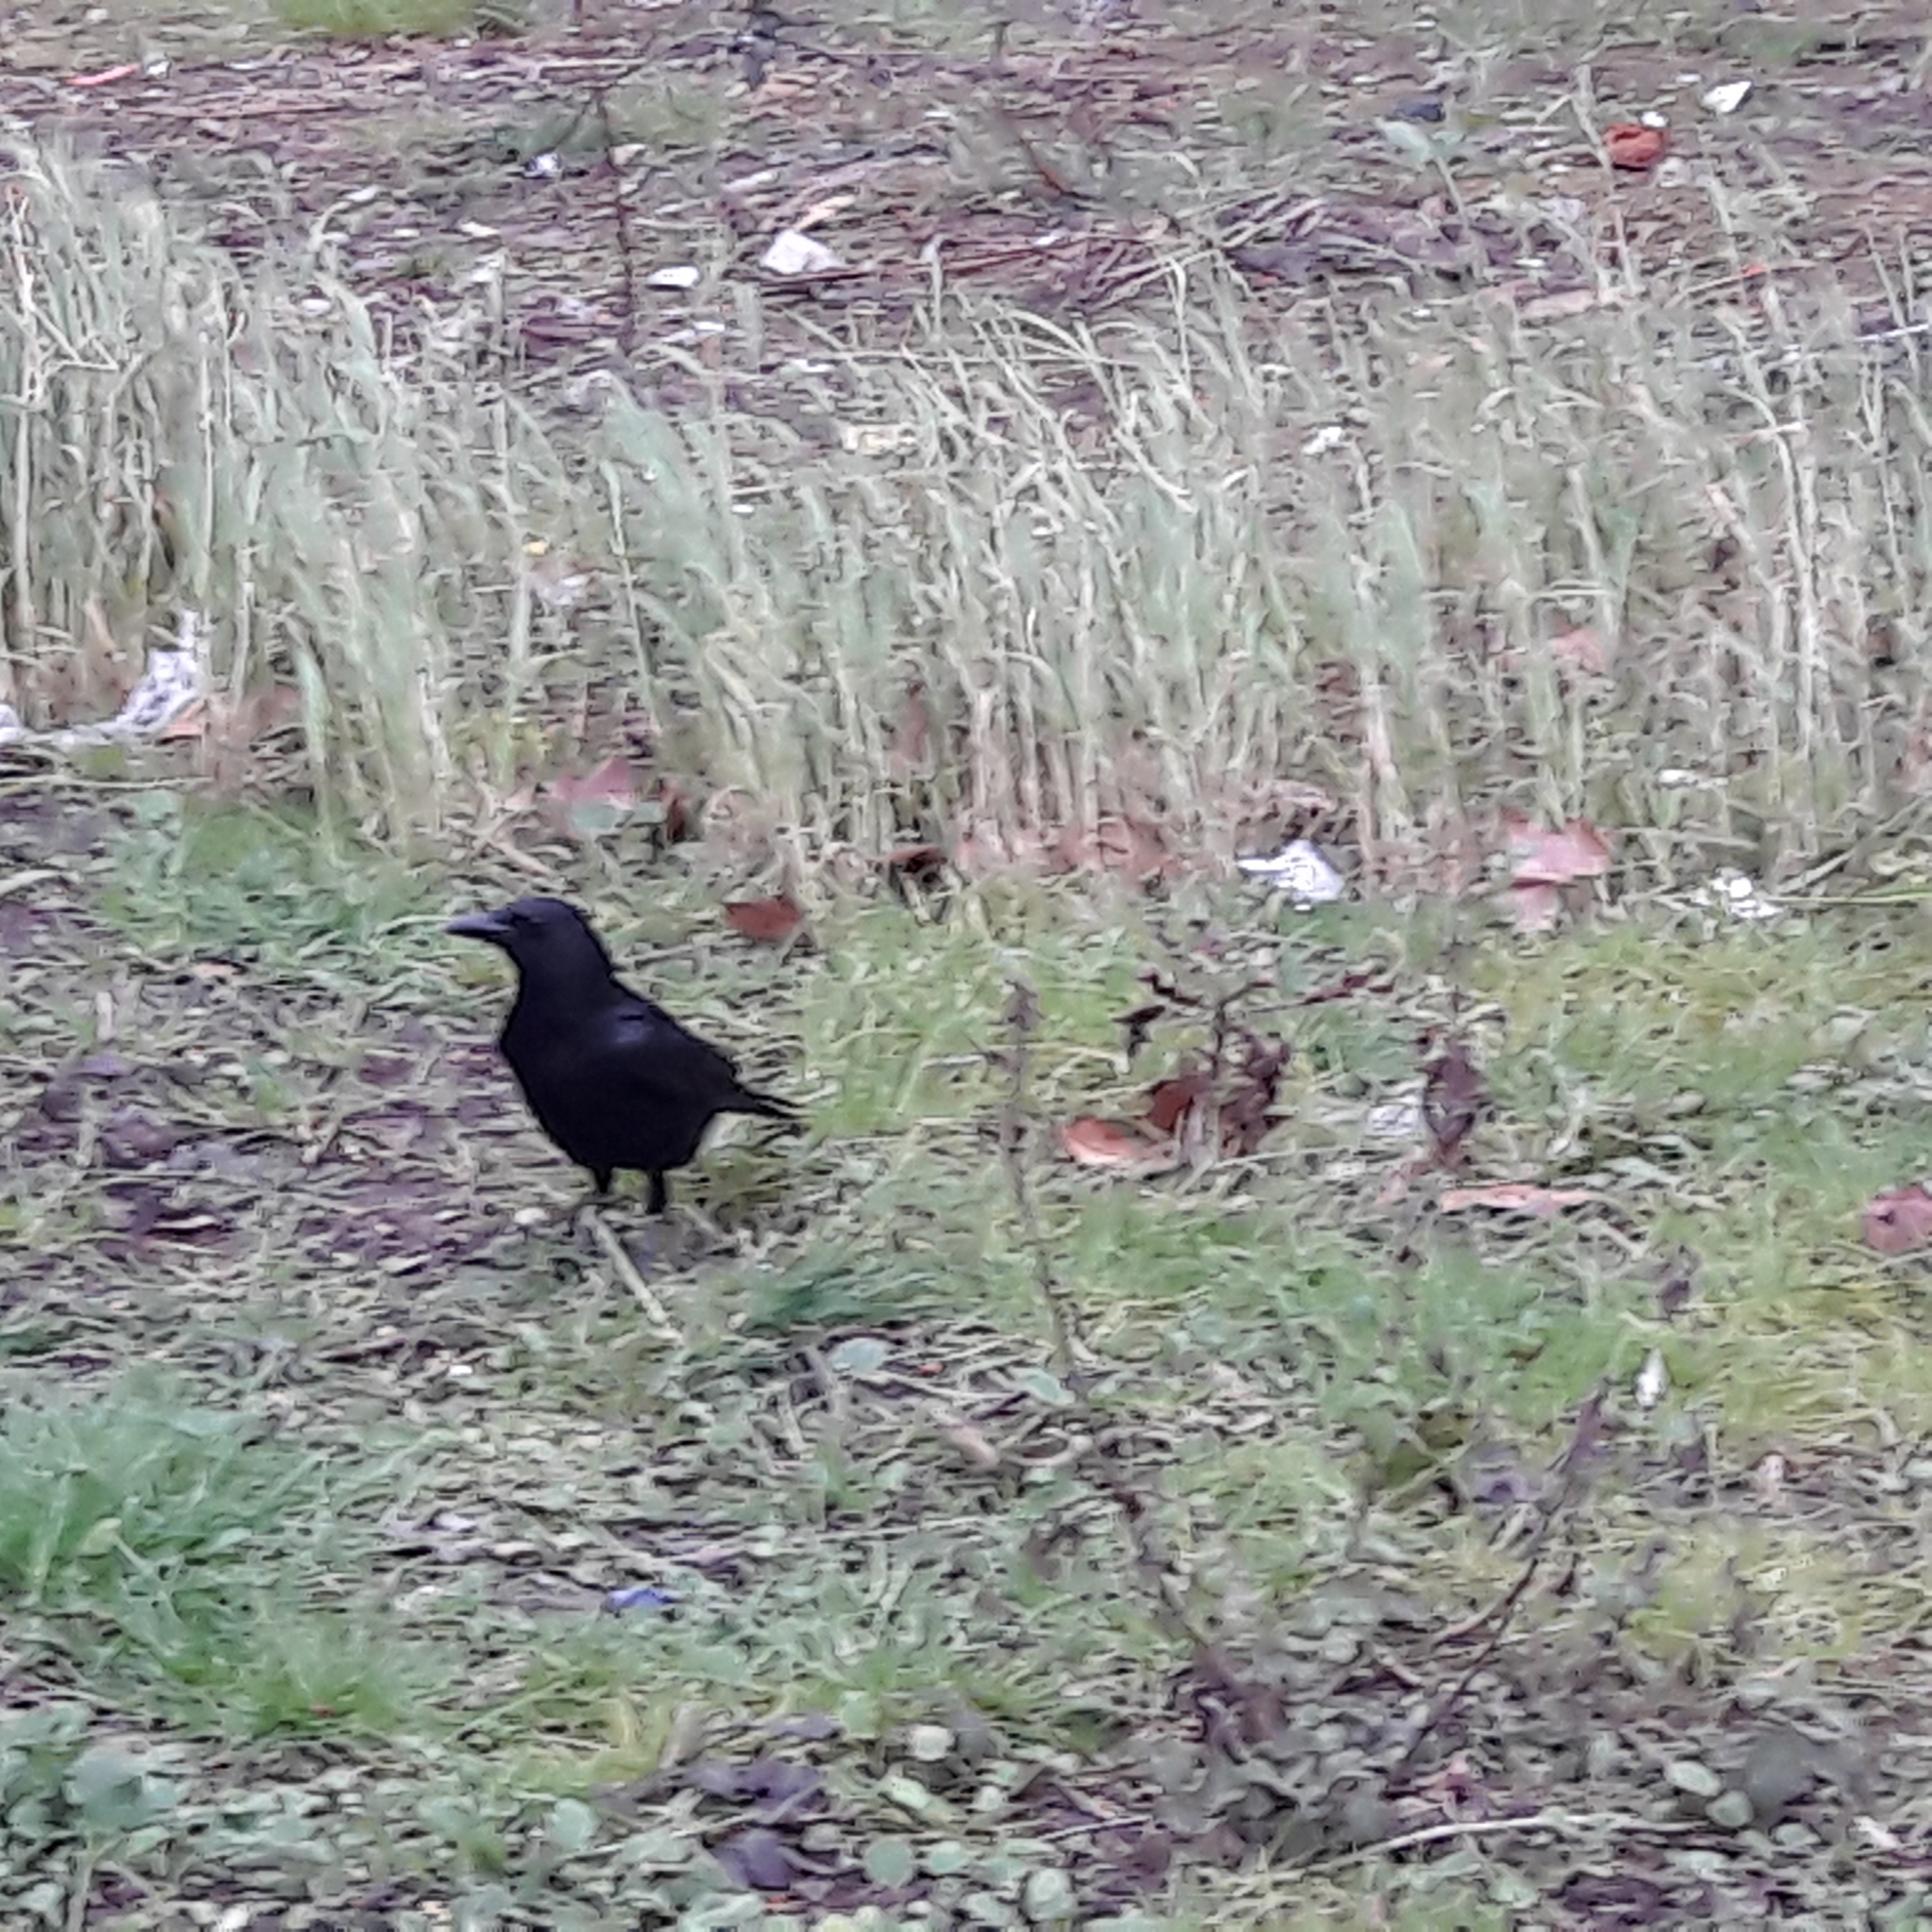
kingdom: Animalia
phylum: Chordata
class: Aves
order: Passeriformes
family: Corvidae
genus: Corvus
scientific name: Corvus corone
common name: Carrion crow
